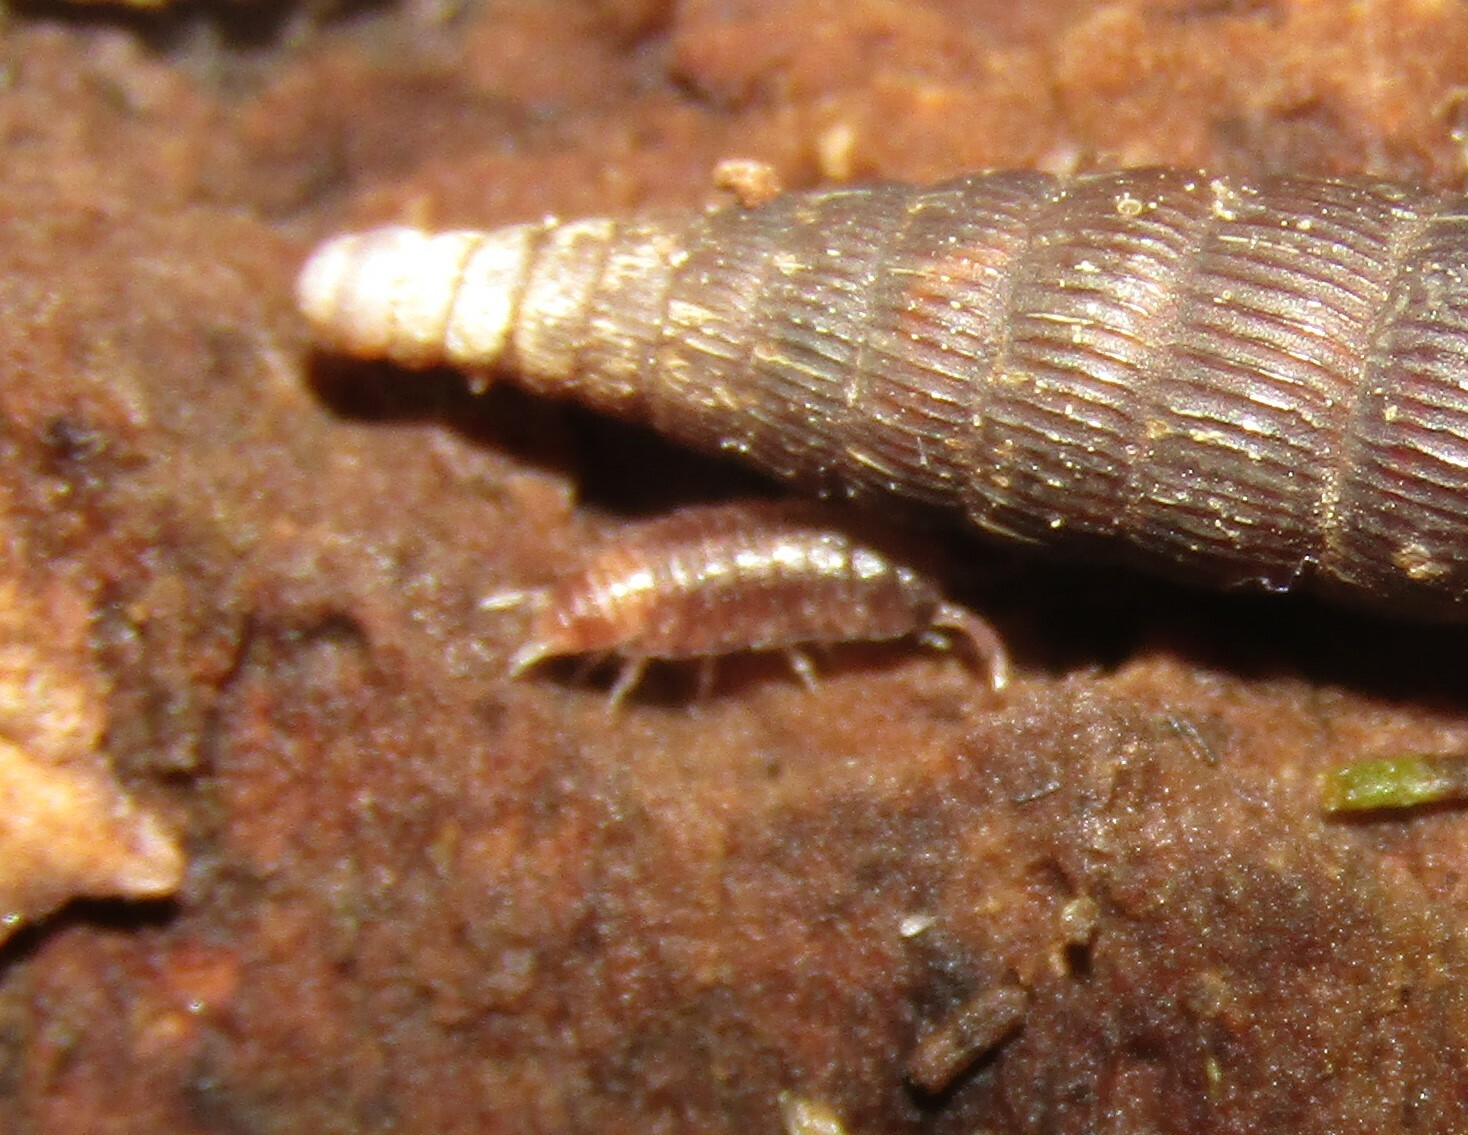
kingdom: Animalia
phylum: Arthropoda
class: Malacostraca
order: Isopoda
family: Trichoniscidae
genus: Hyloniscus
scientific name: Hyloniscus riparius
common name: Isopod
